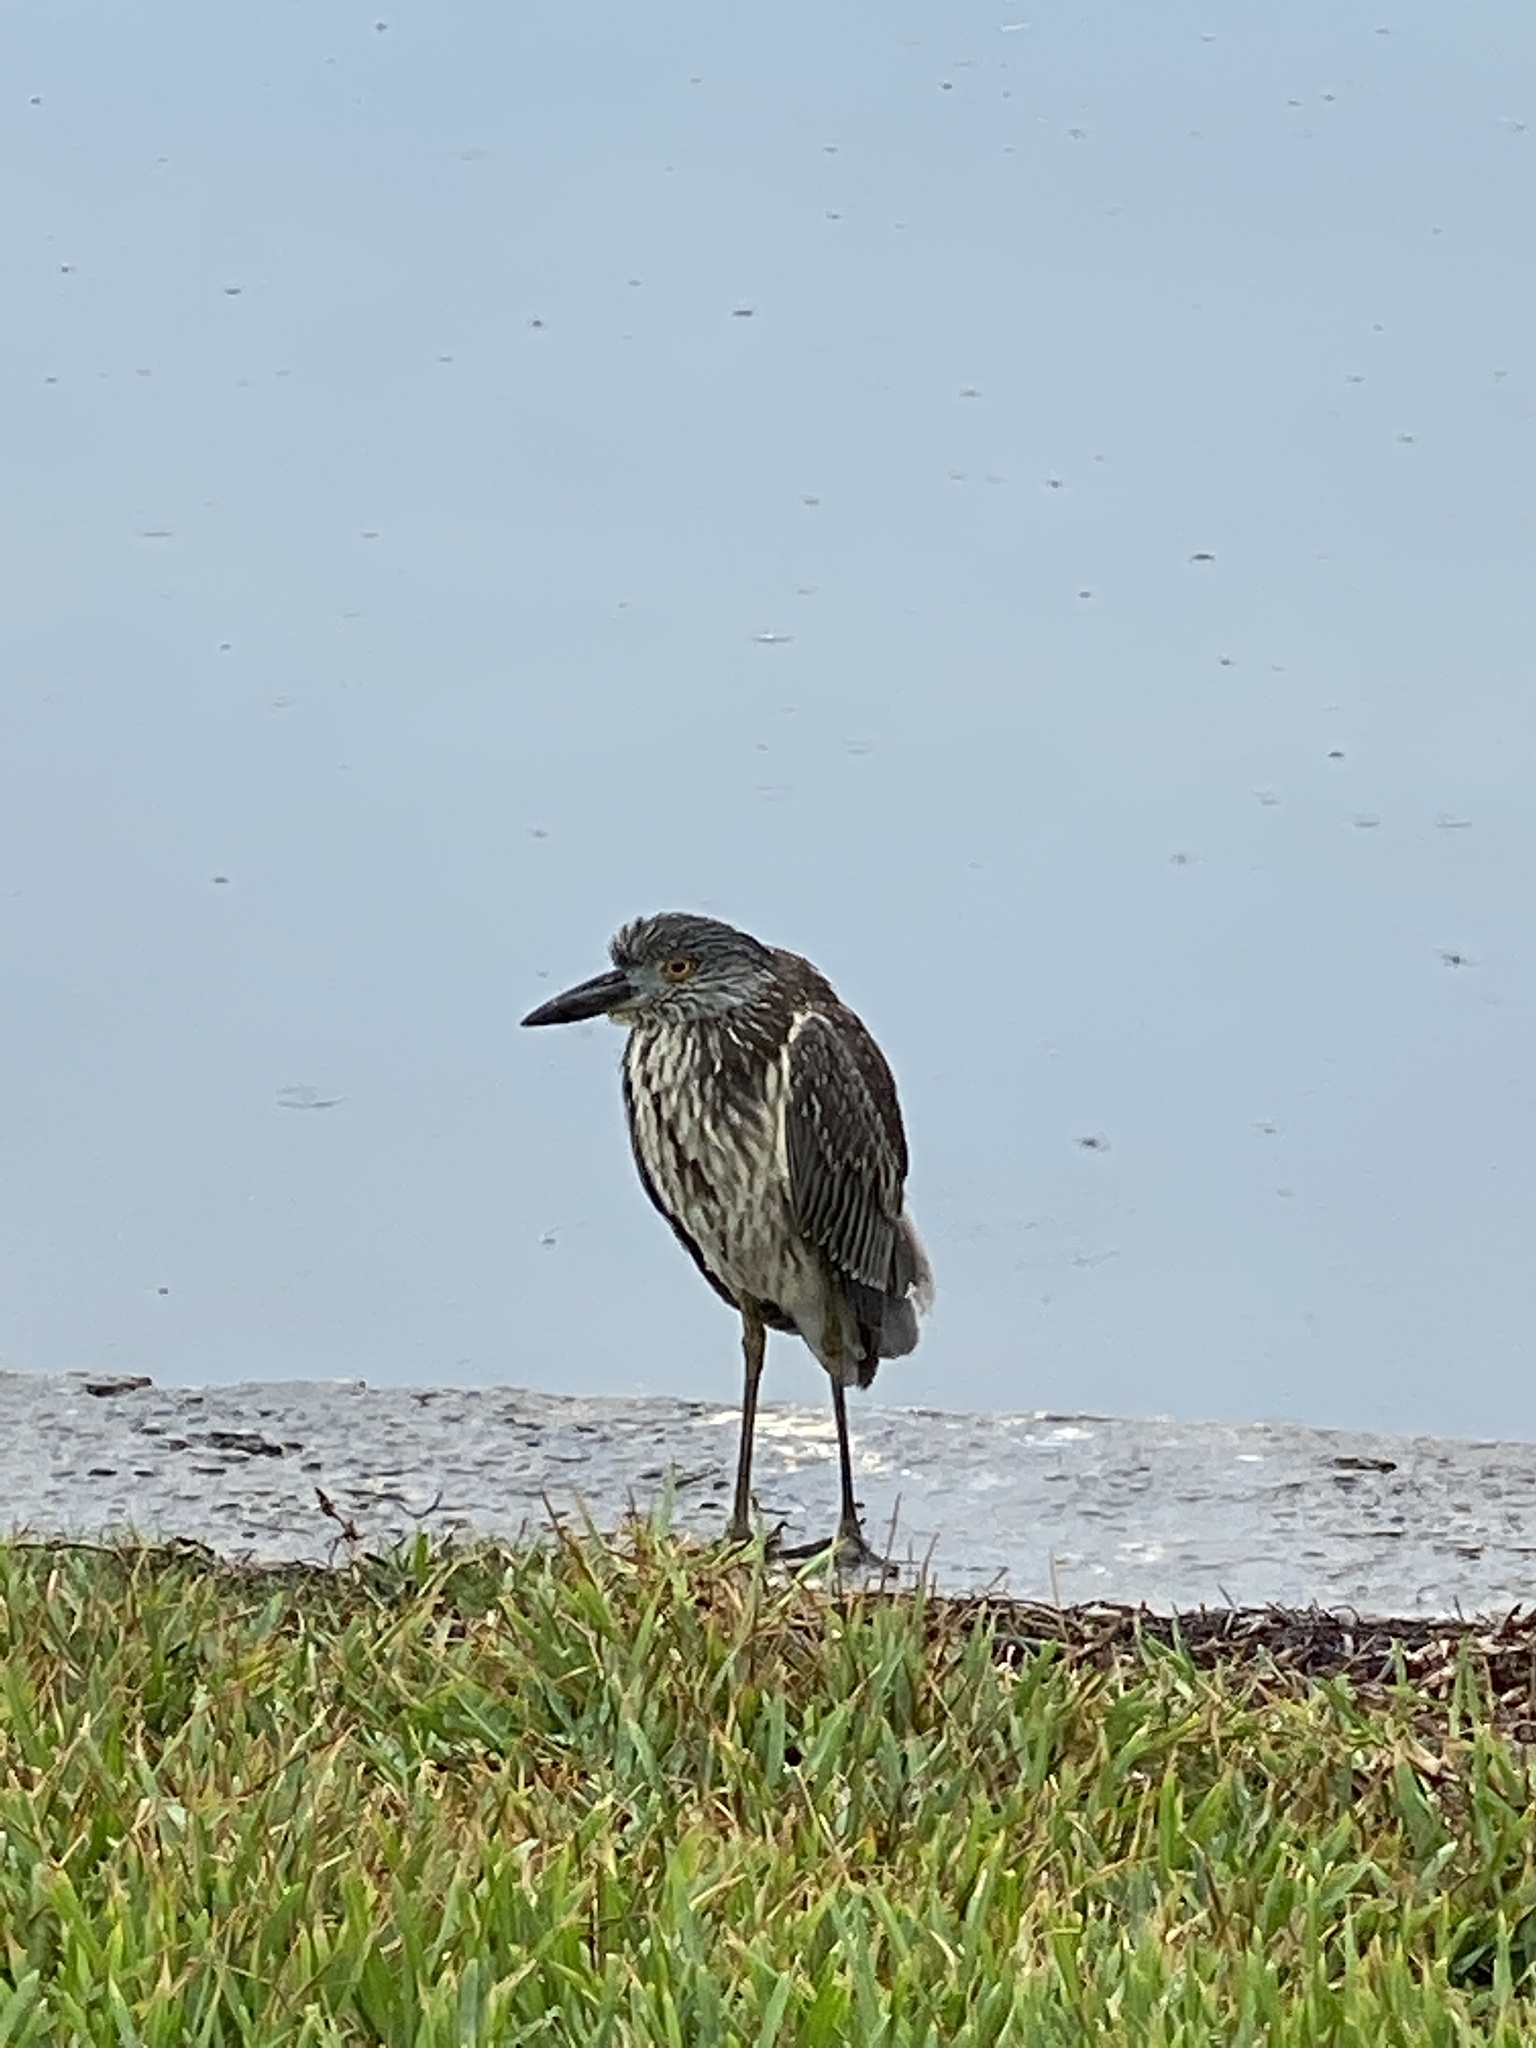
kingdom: Animalia
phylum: Chordata
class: Aves
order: Pelecaniformes
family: Ardeidae
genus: Nyctanassa
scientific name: Nyctanassa violacea
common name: Yellow-crowned night heron
